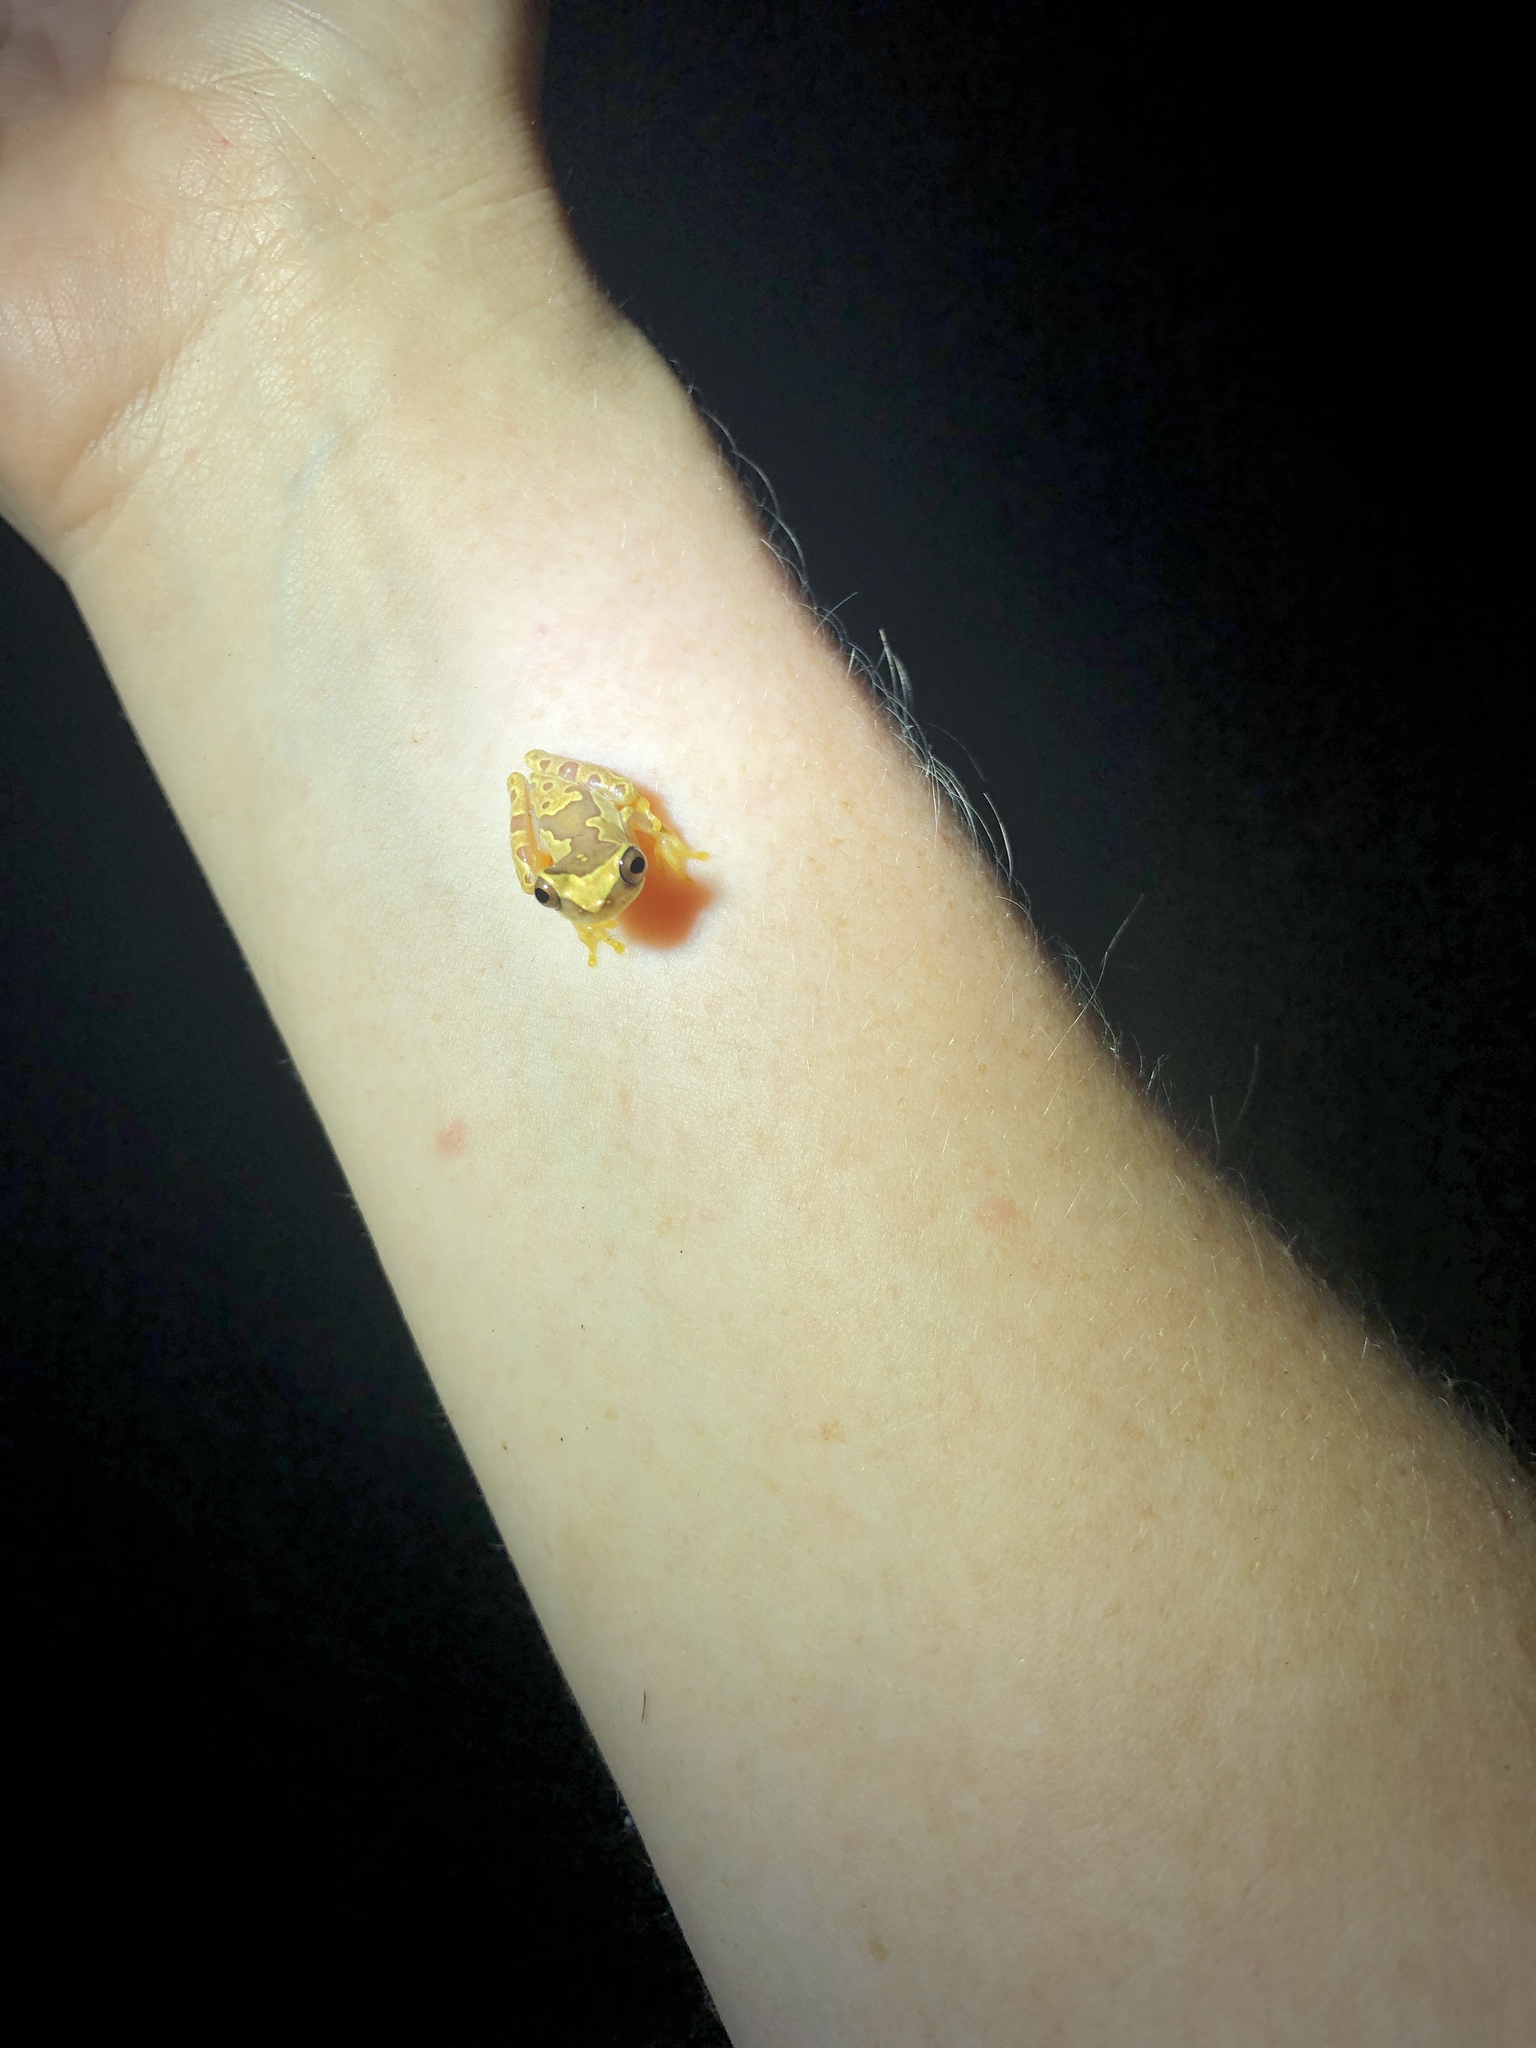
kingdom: Animalia
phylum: Chordata
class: Amphibia
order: Anura
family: Hylidae
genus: Dendropsophus
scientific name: Dendropsophus ebraccatus
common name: Hourglass treefrog
